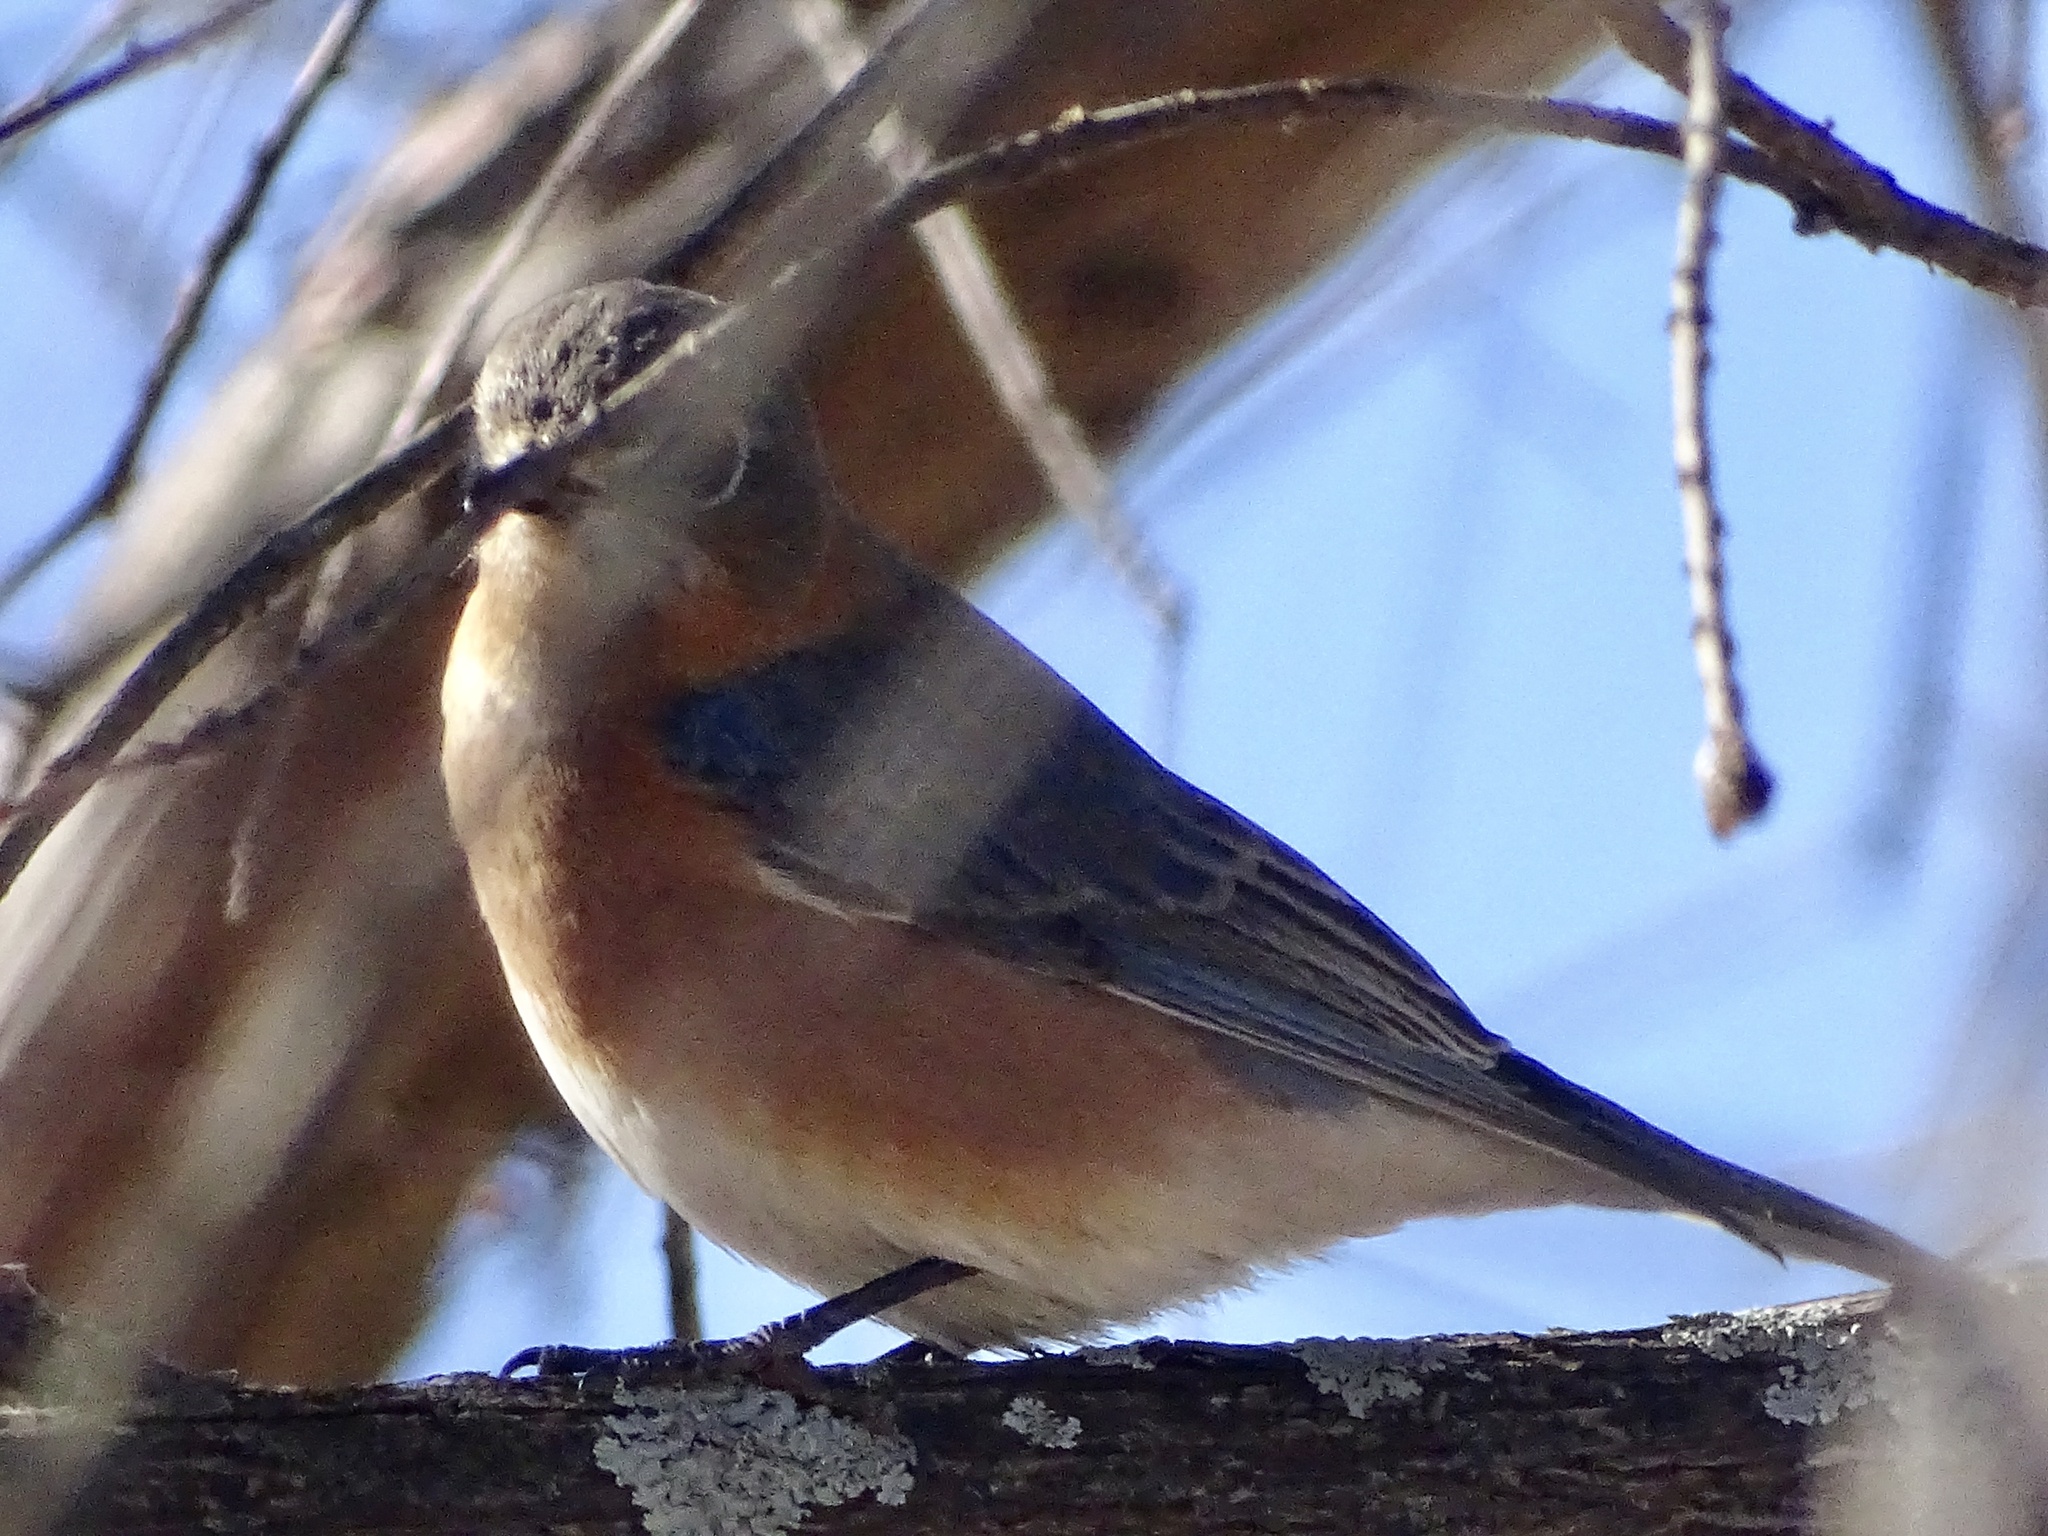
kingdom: Animalia
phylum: Chordata
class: Aves
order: Passeriformes
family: Turdidae
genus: Sialia
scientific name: Sialia sialis
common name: Eastern bluebird
